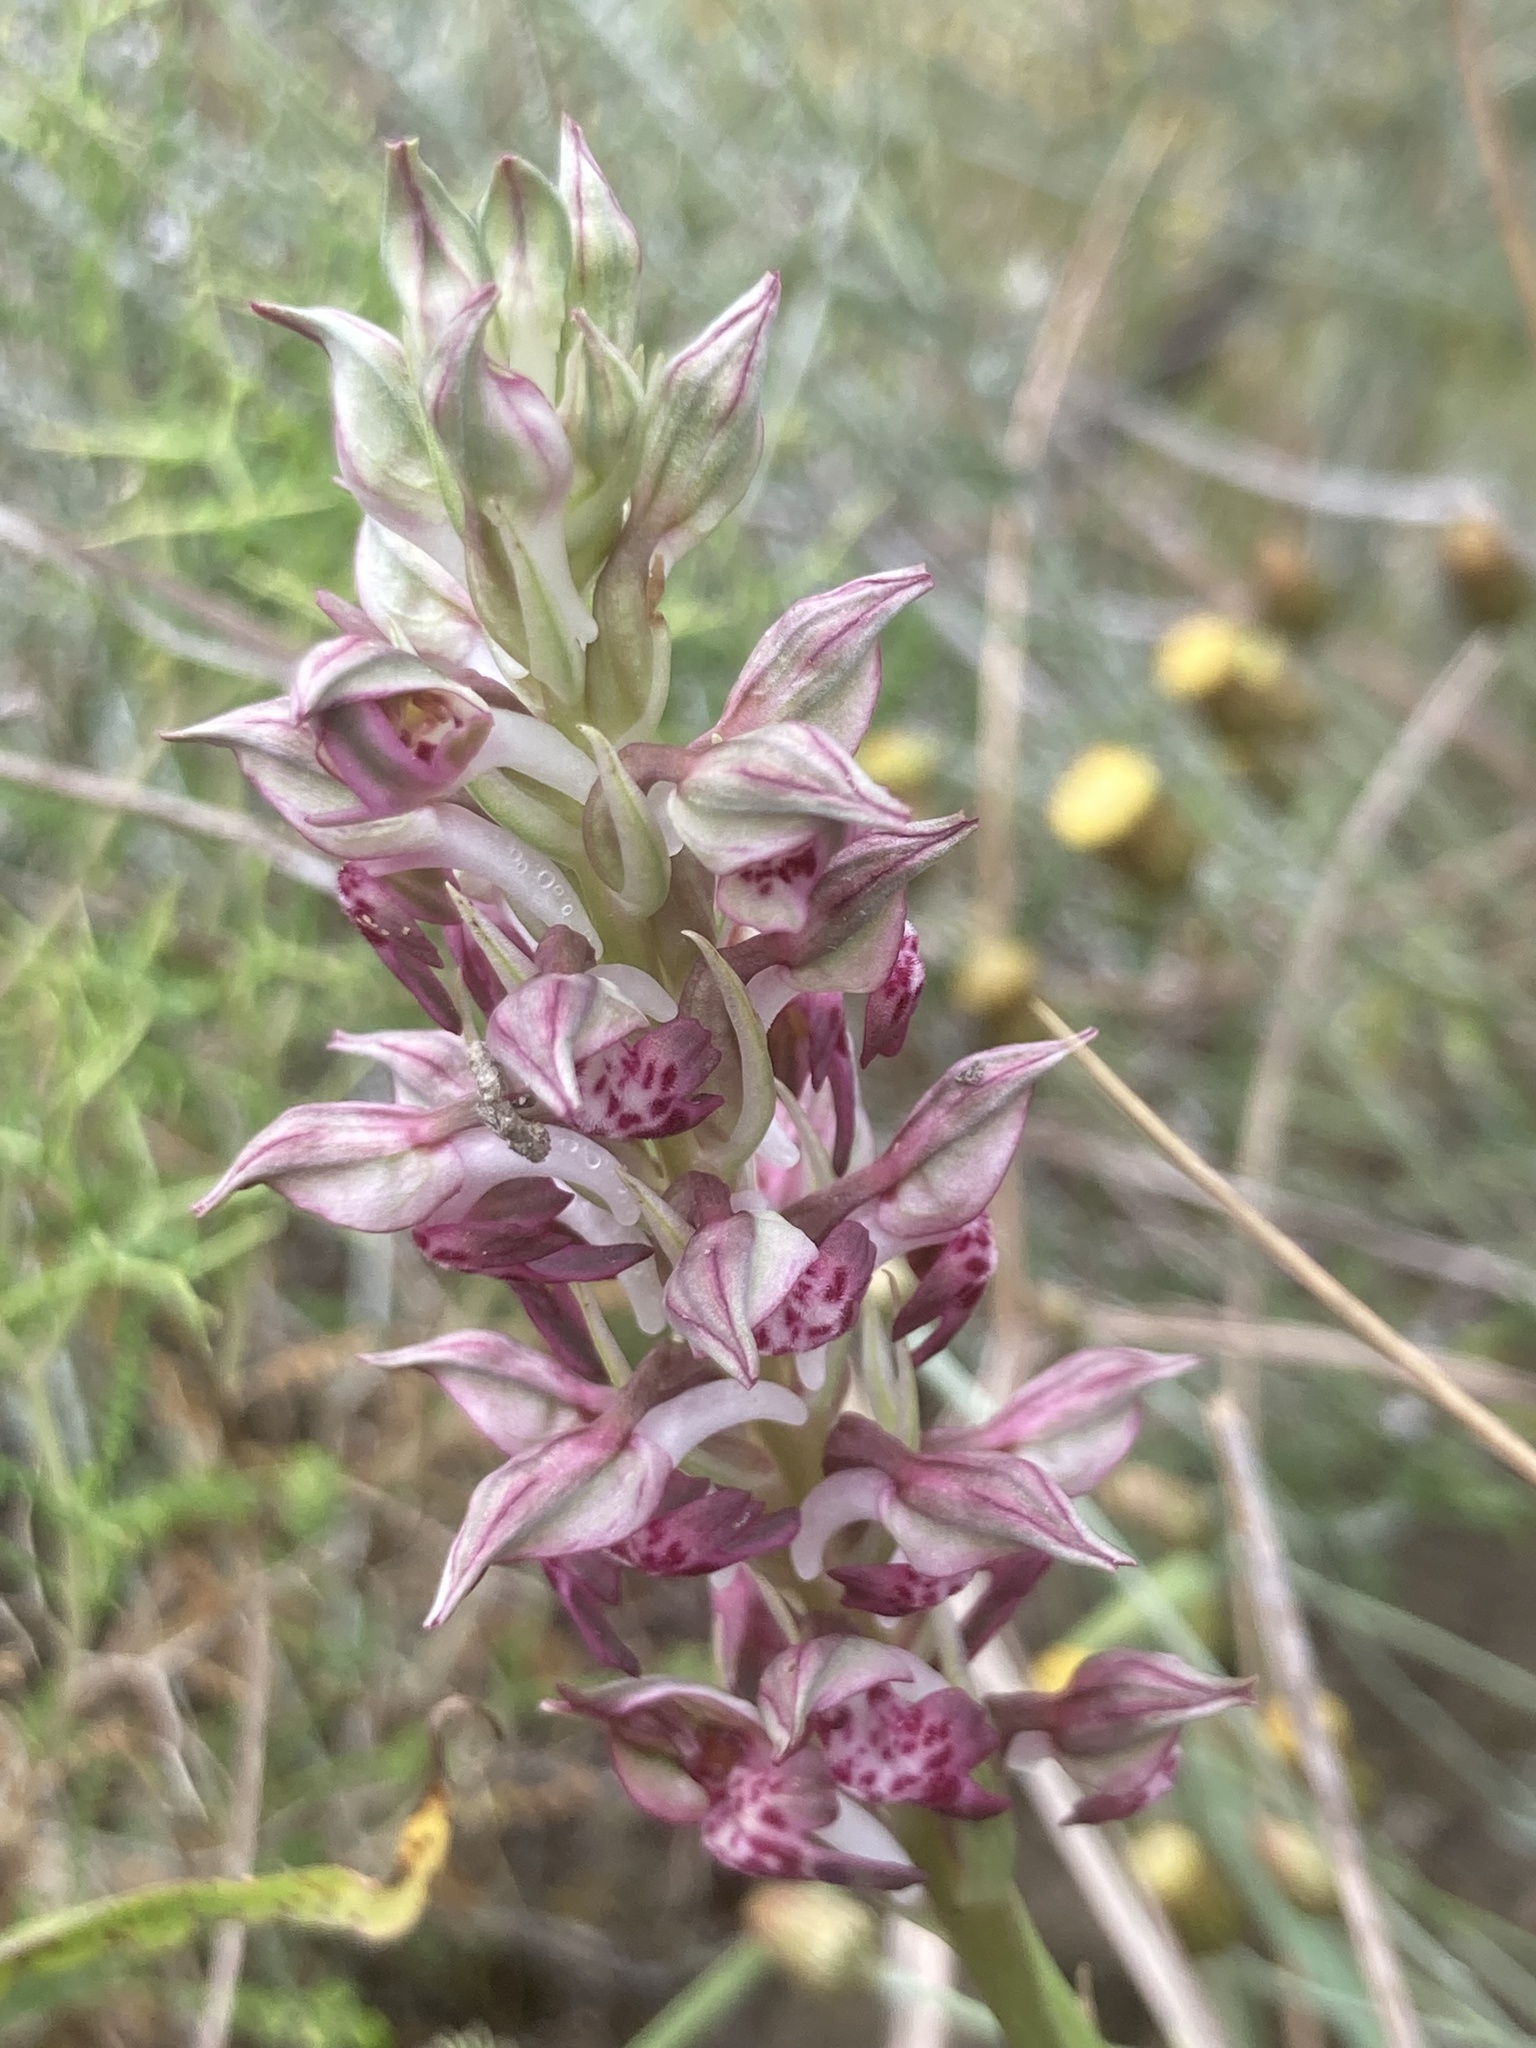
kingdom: Plantae
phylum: Tracheophyta
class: Liliopsida
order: Asparagales
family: Orchidaceae
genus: Anacamptis
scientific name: Anacamptis coriophora
